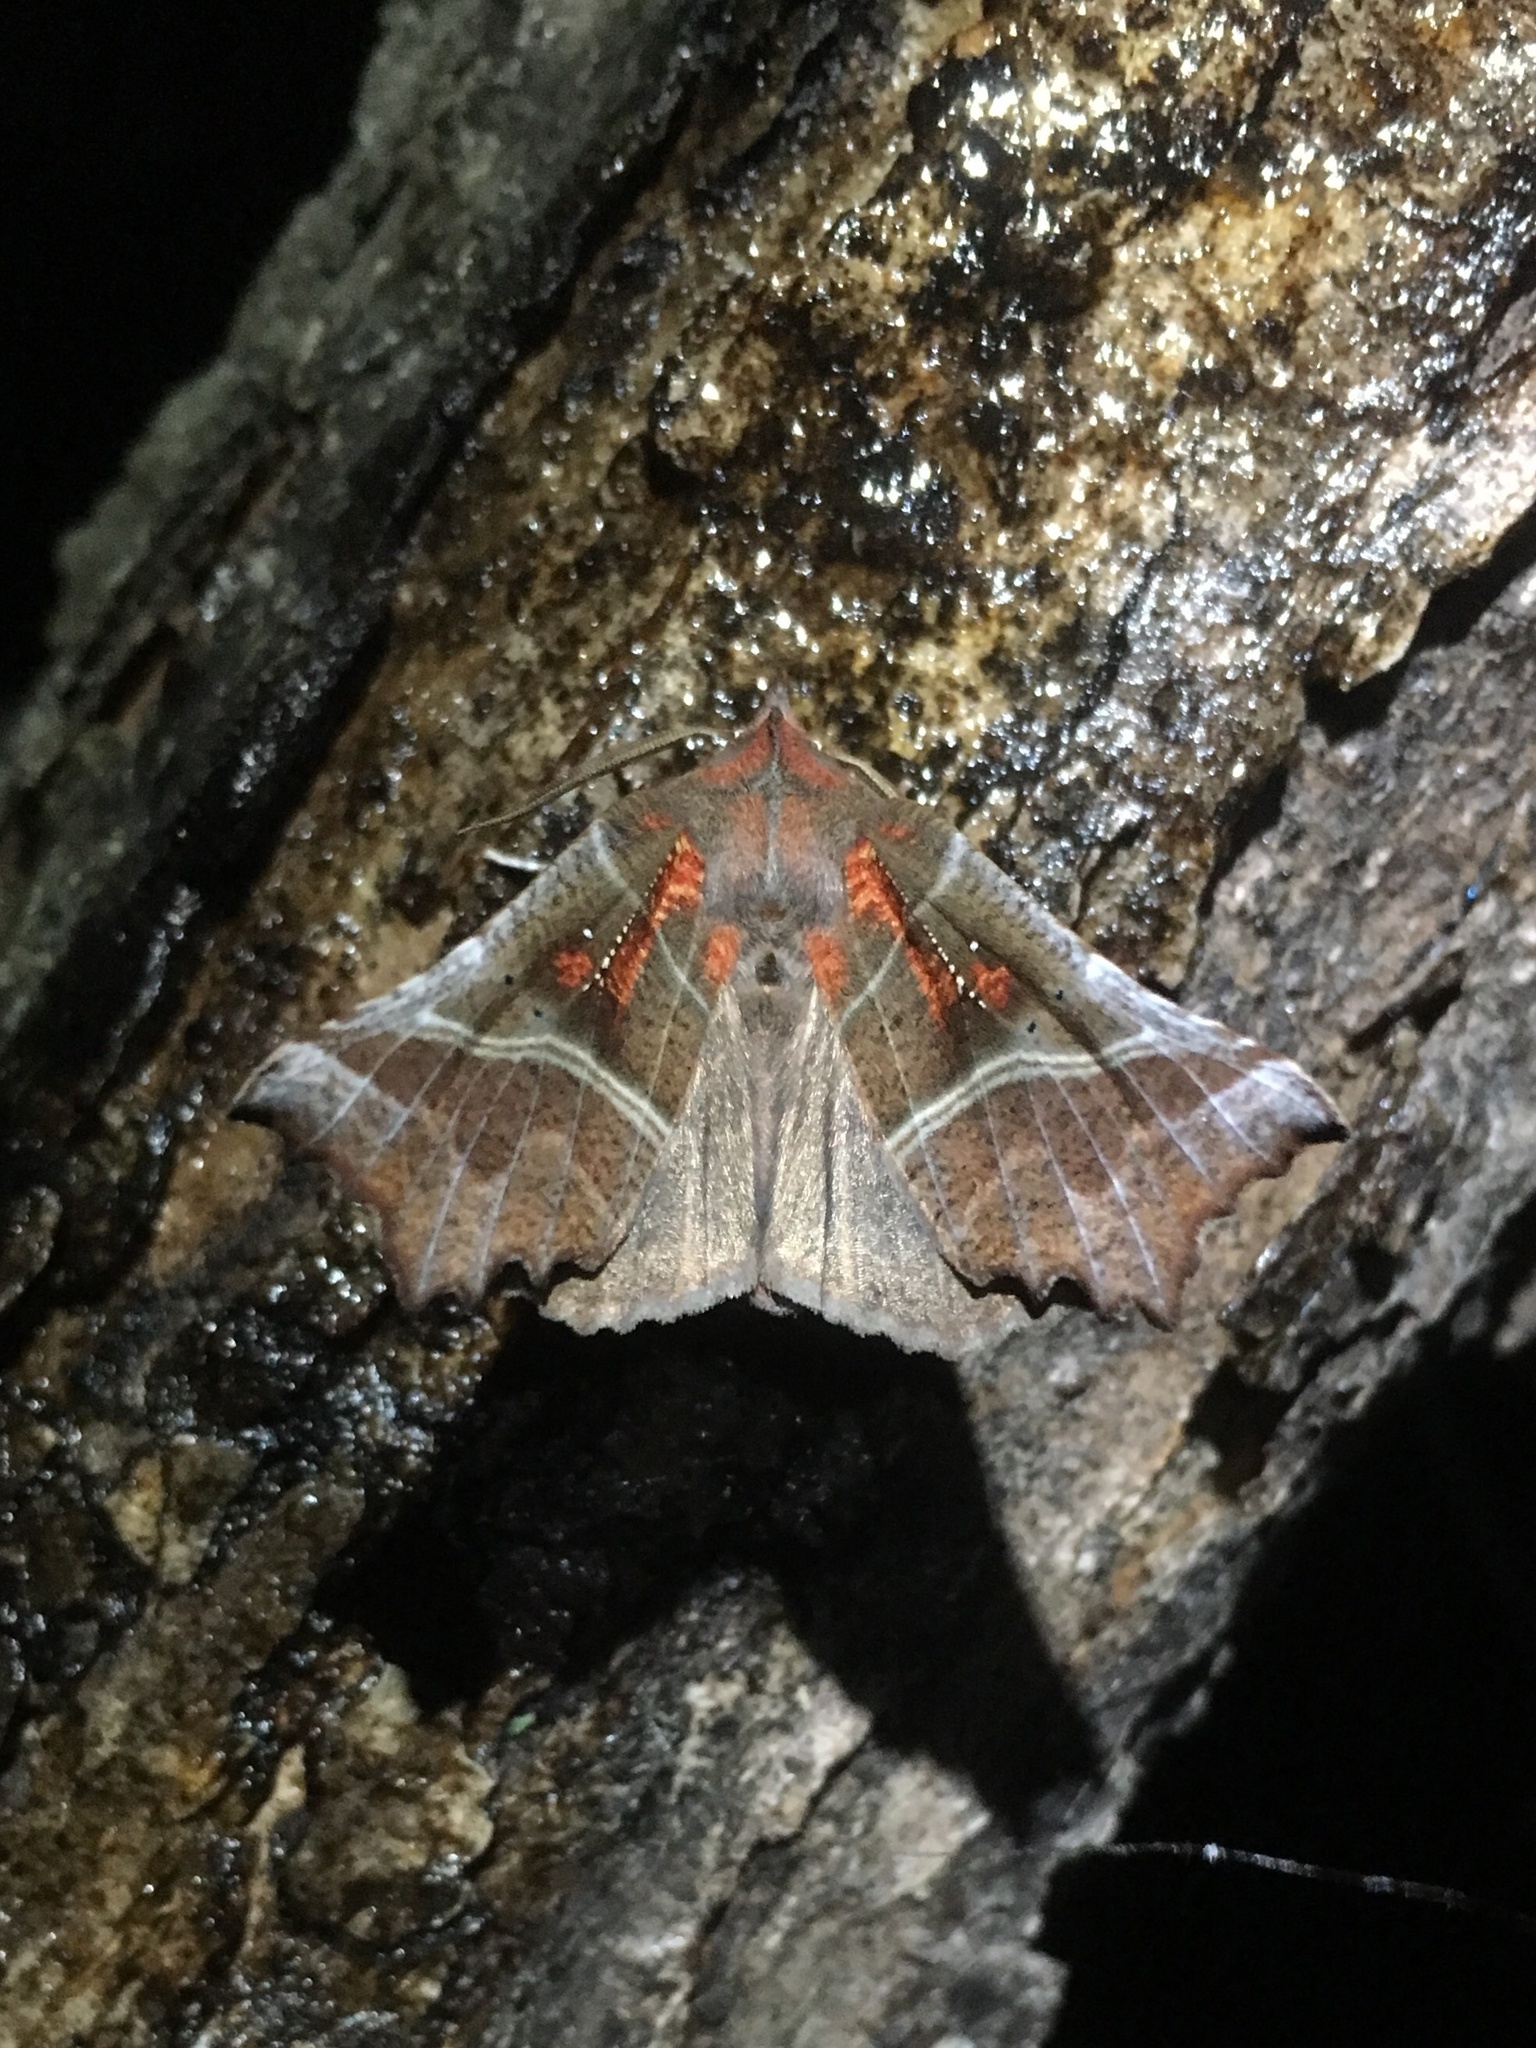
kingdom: Animalia
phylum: Arthropoda
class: Insecta
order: Lepidoptera
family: Erebidae
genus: Scoliopteryx
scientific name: Scoliopteryx libatrix
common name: Herald
